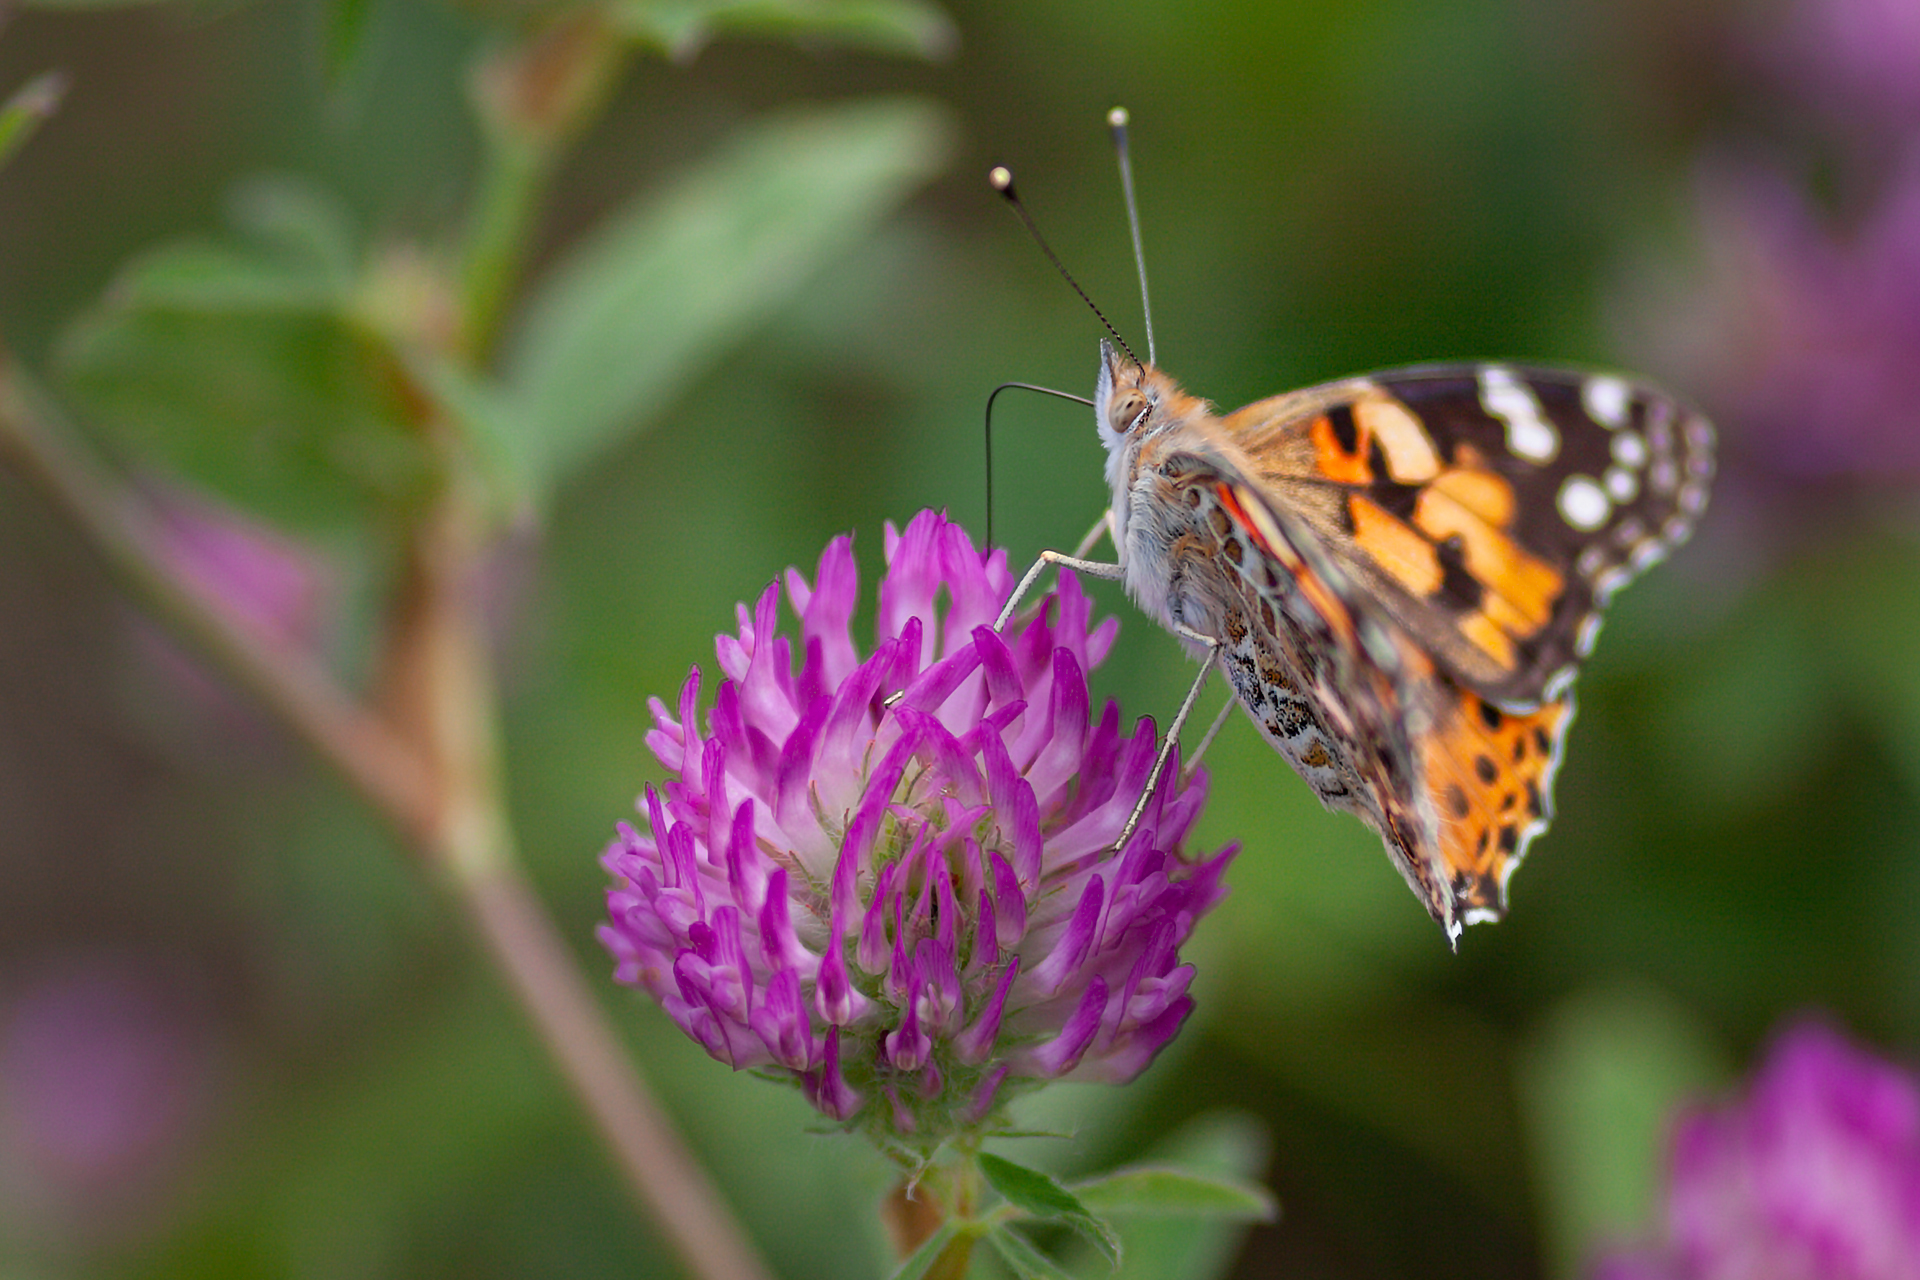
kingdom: Plantae
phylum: Tracheophyta
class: Magnoliopsida
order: Fabales
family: Fabaceae
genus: Trifolium
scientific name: Trifolium pratense
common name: Red clover
